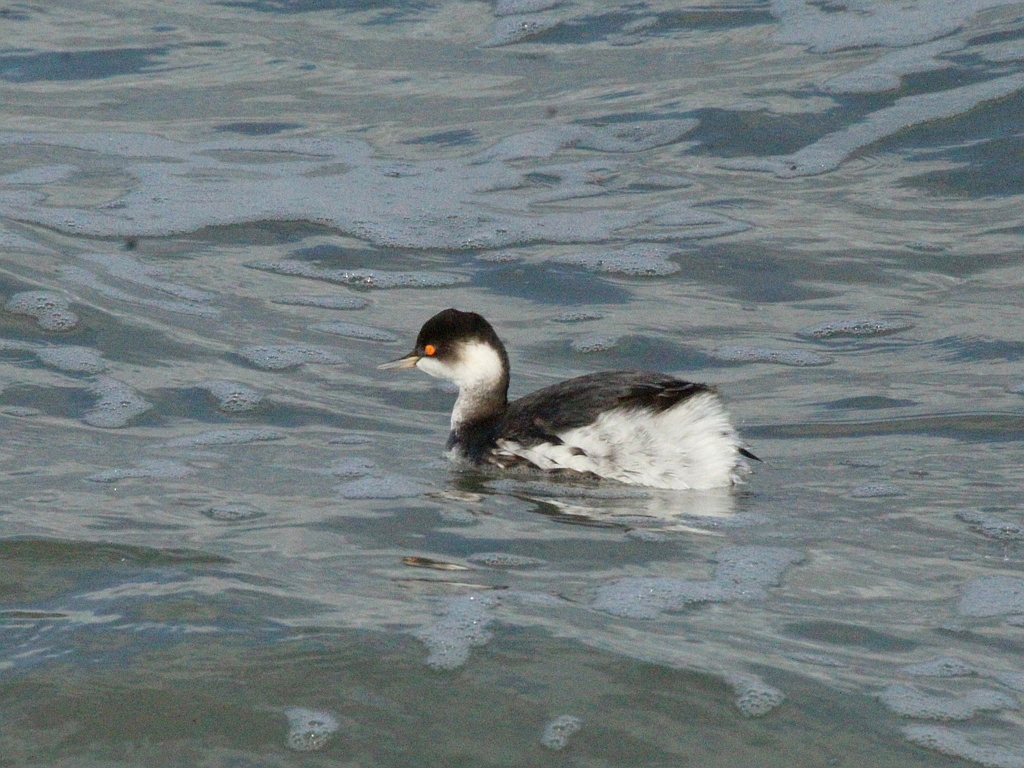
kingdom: Animalia
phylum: Chordata
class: Aves
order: Podicipediformes
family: Podicipedidae
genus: Podiceps
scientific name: Podiceps nigricollis
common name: Black-necked grebe
